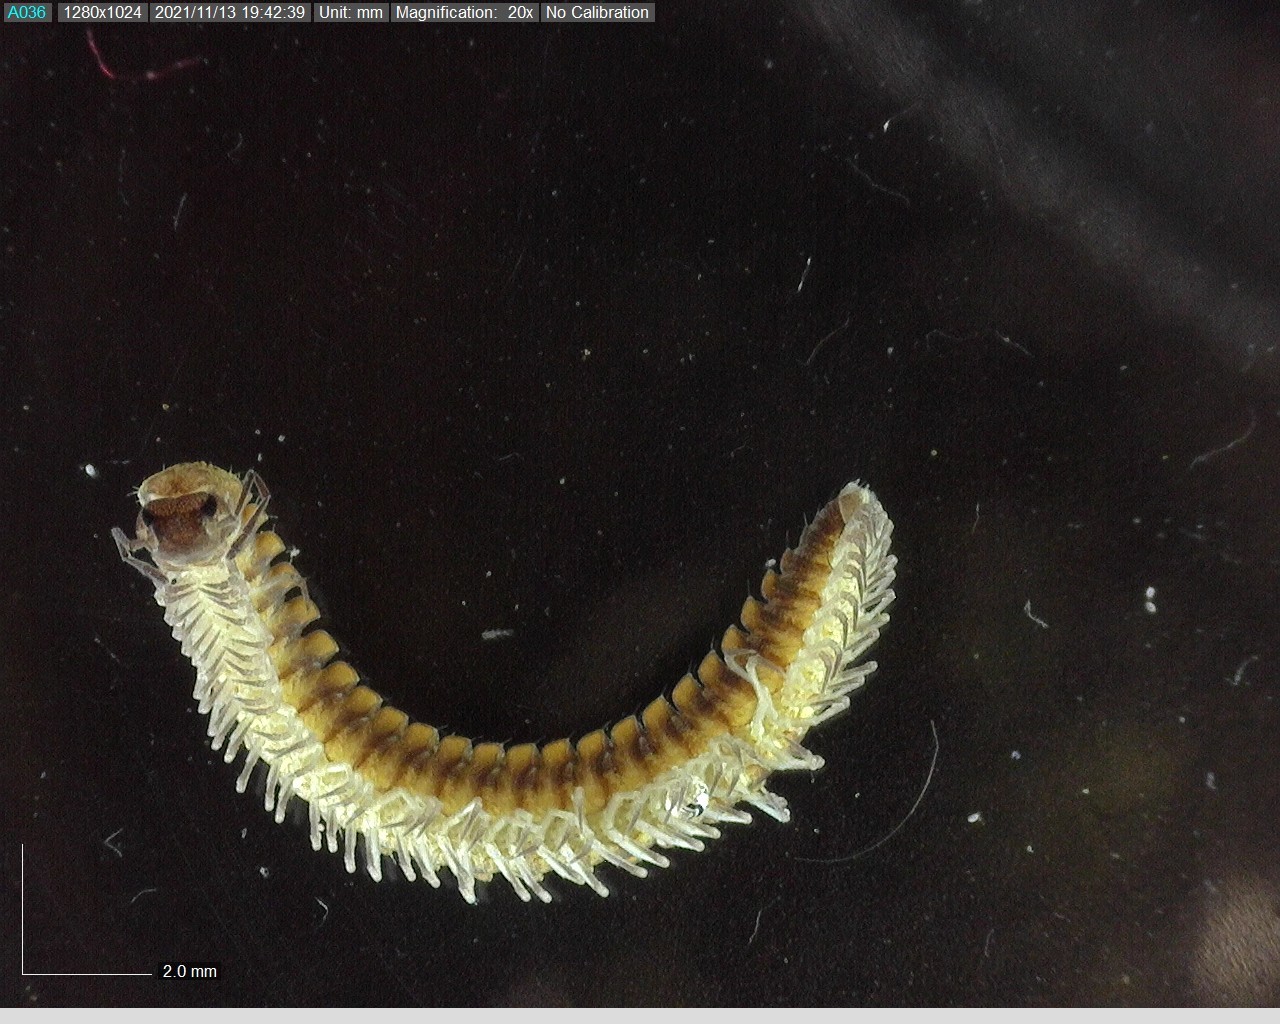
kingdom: Animalia
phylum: Arthropoda
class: Diplopoda
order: Chordeumatida
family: Craspedosomatidae
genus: Nanogona
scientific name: Nanogona polydesmoides
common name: Eyed flat-backed millipede
